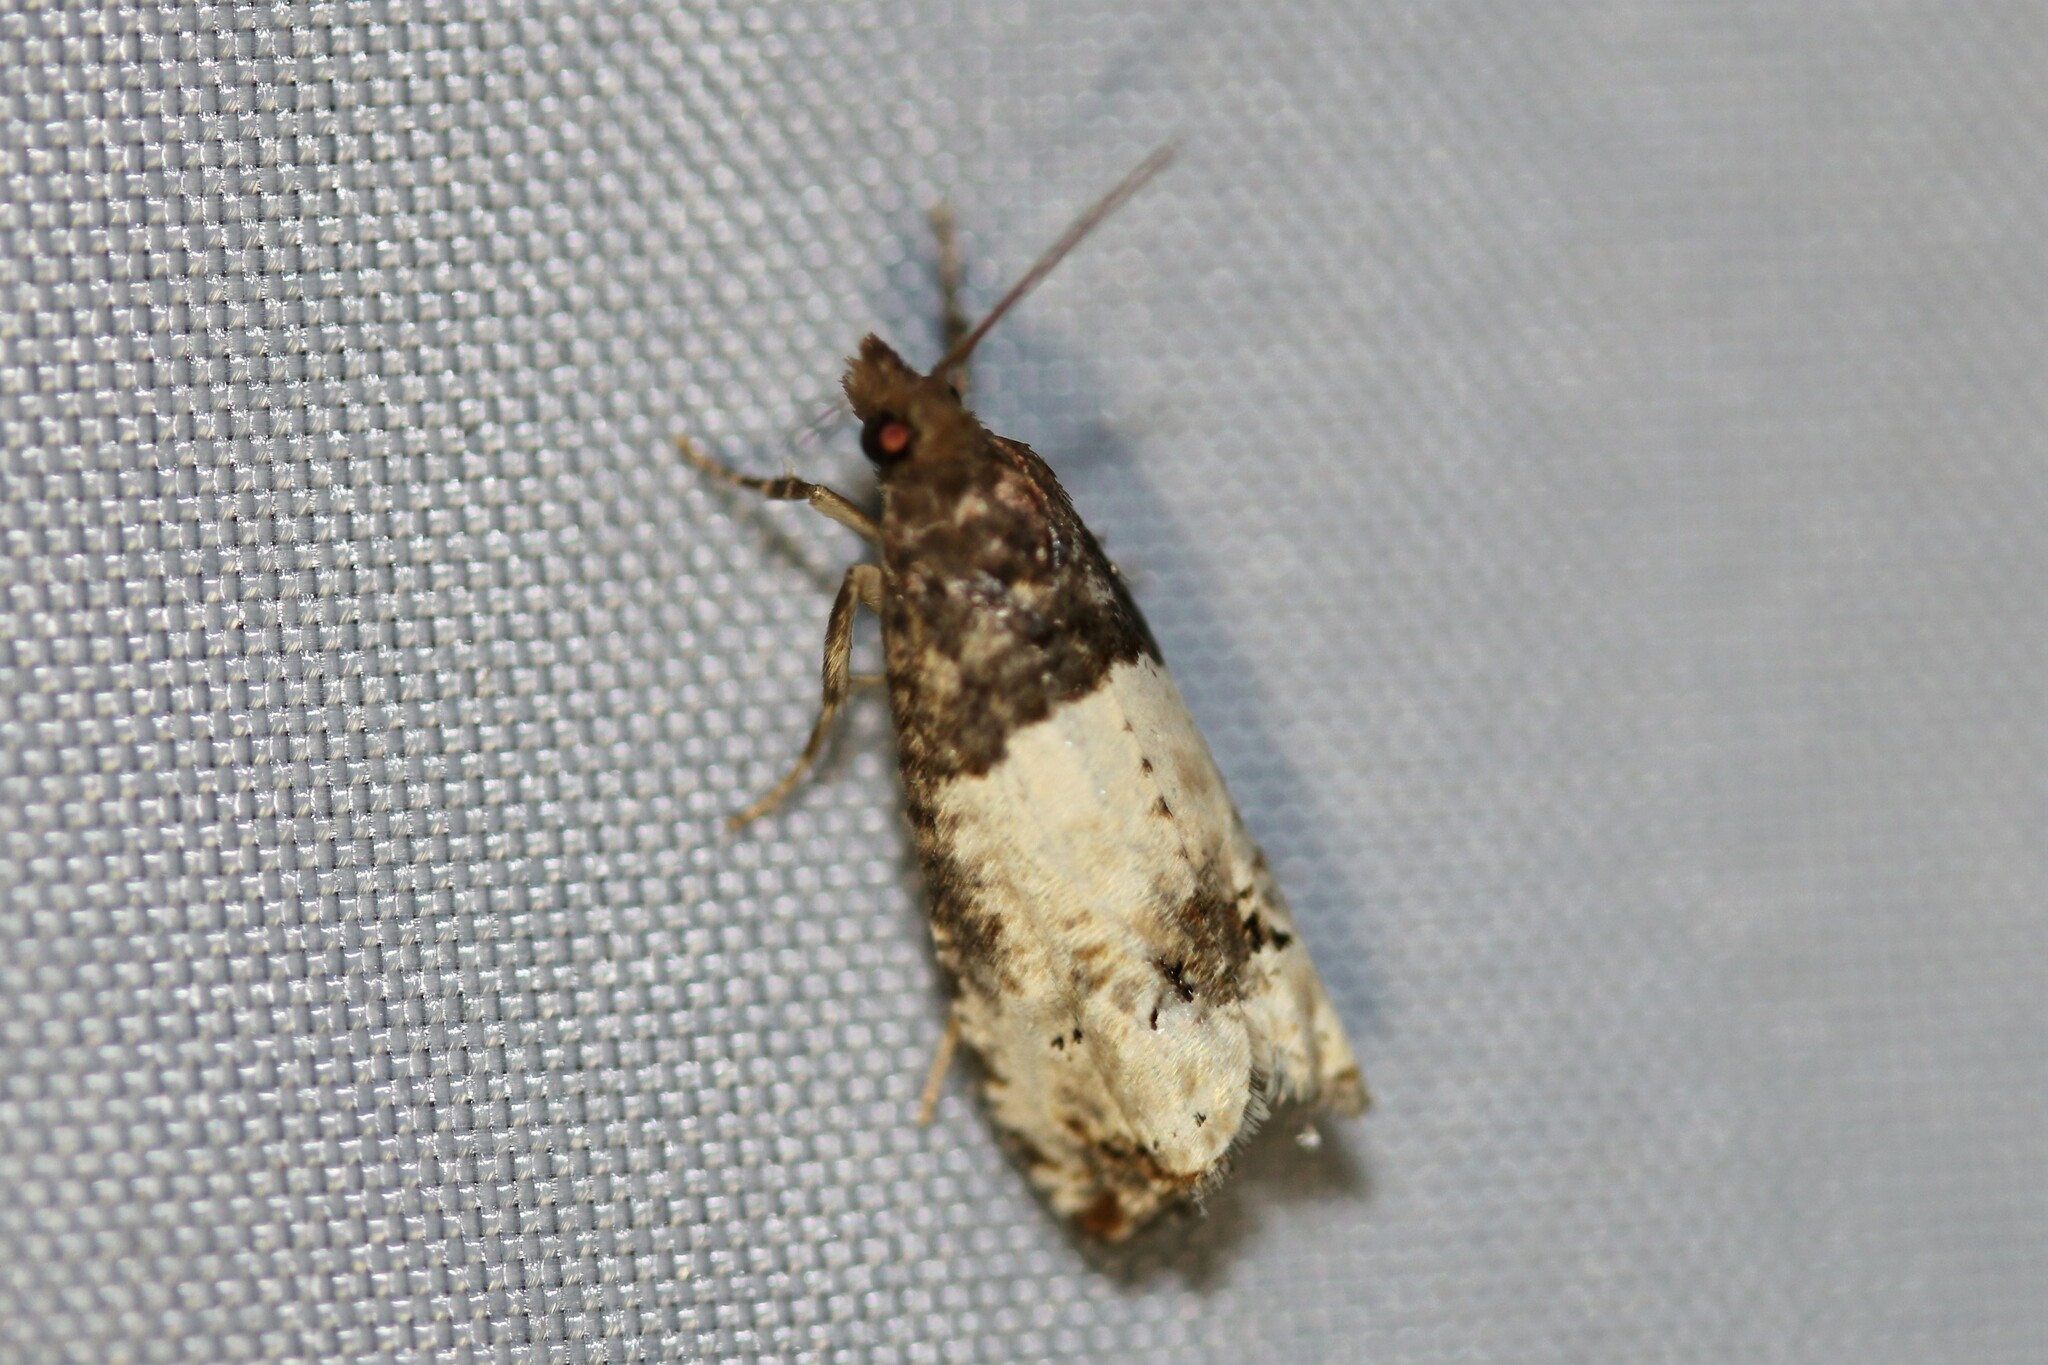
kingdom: Animalia
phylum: Arthropoda
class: Insecta
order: Lepidoptera
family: Tortricidae
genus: Epiblema
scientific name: Epiblema aquana
